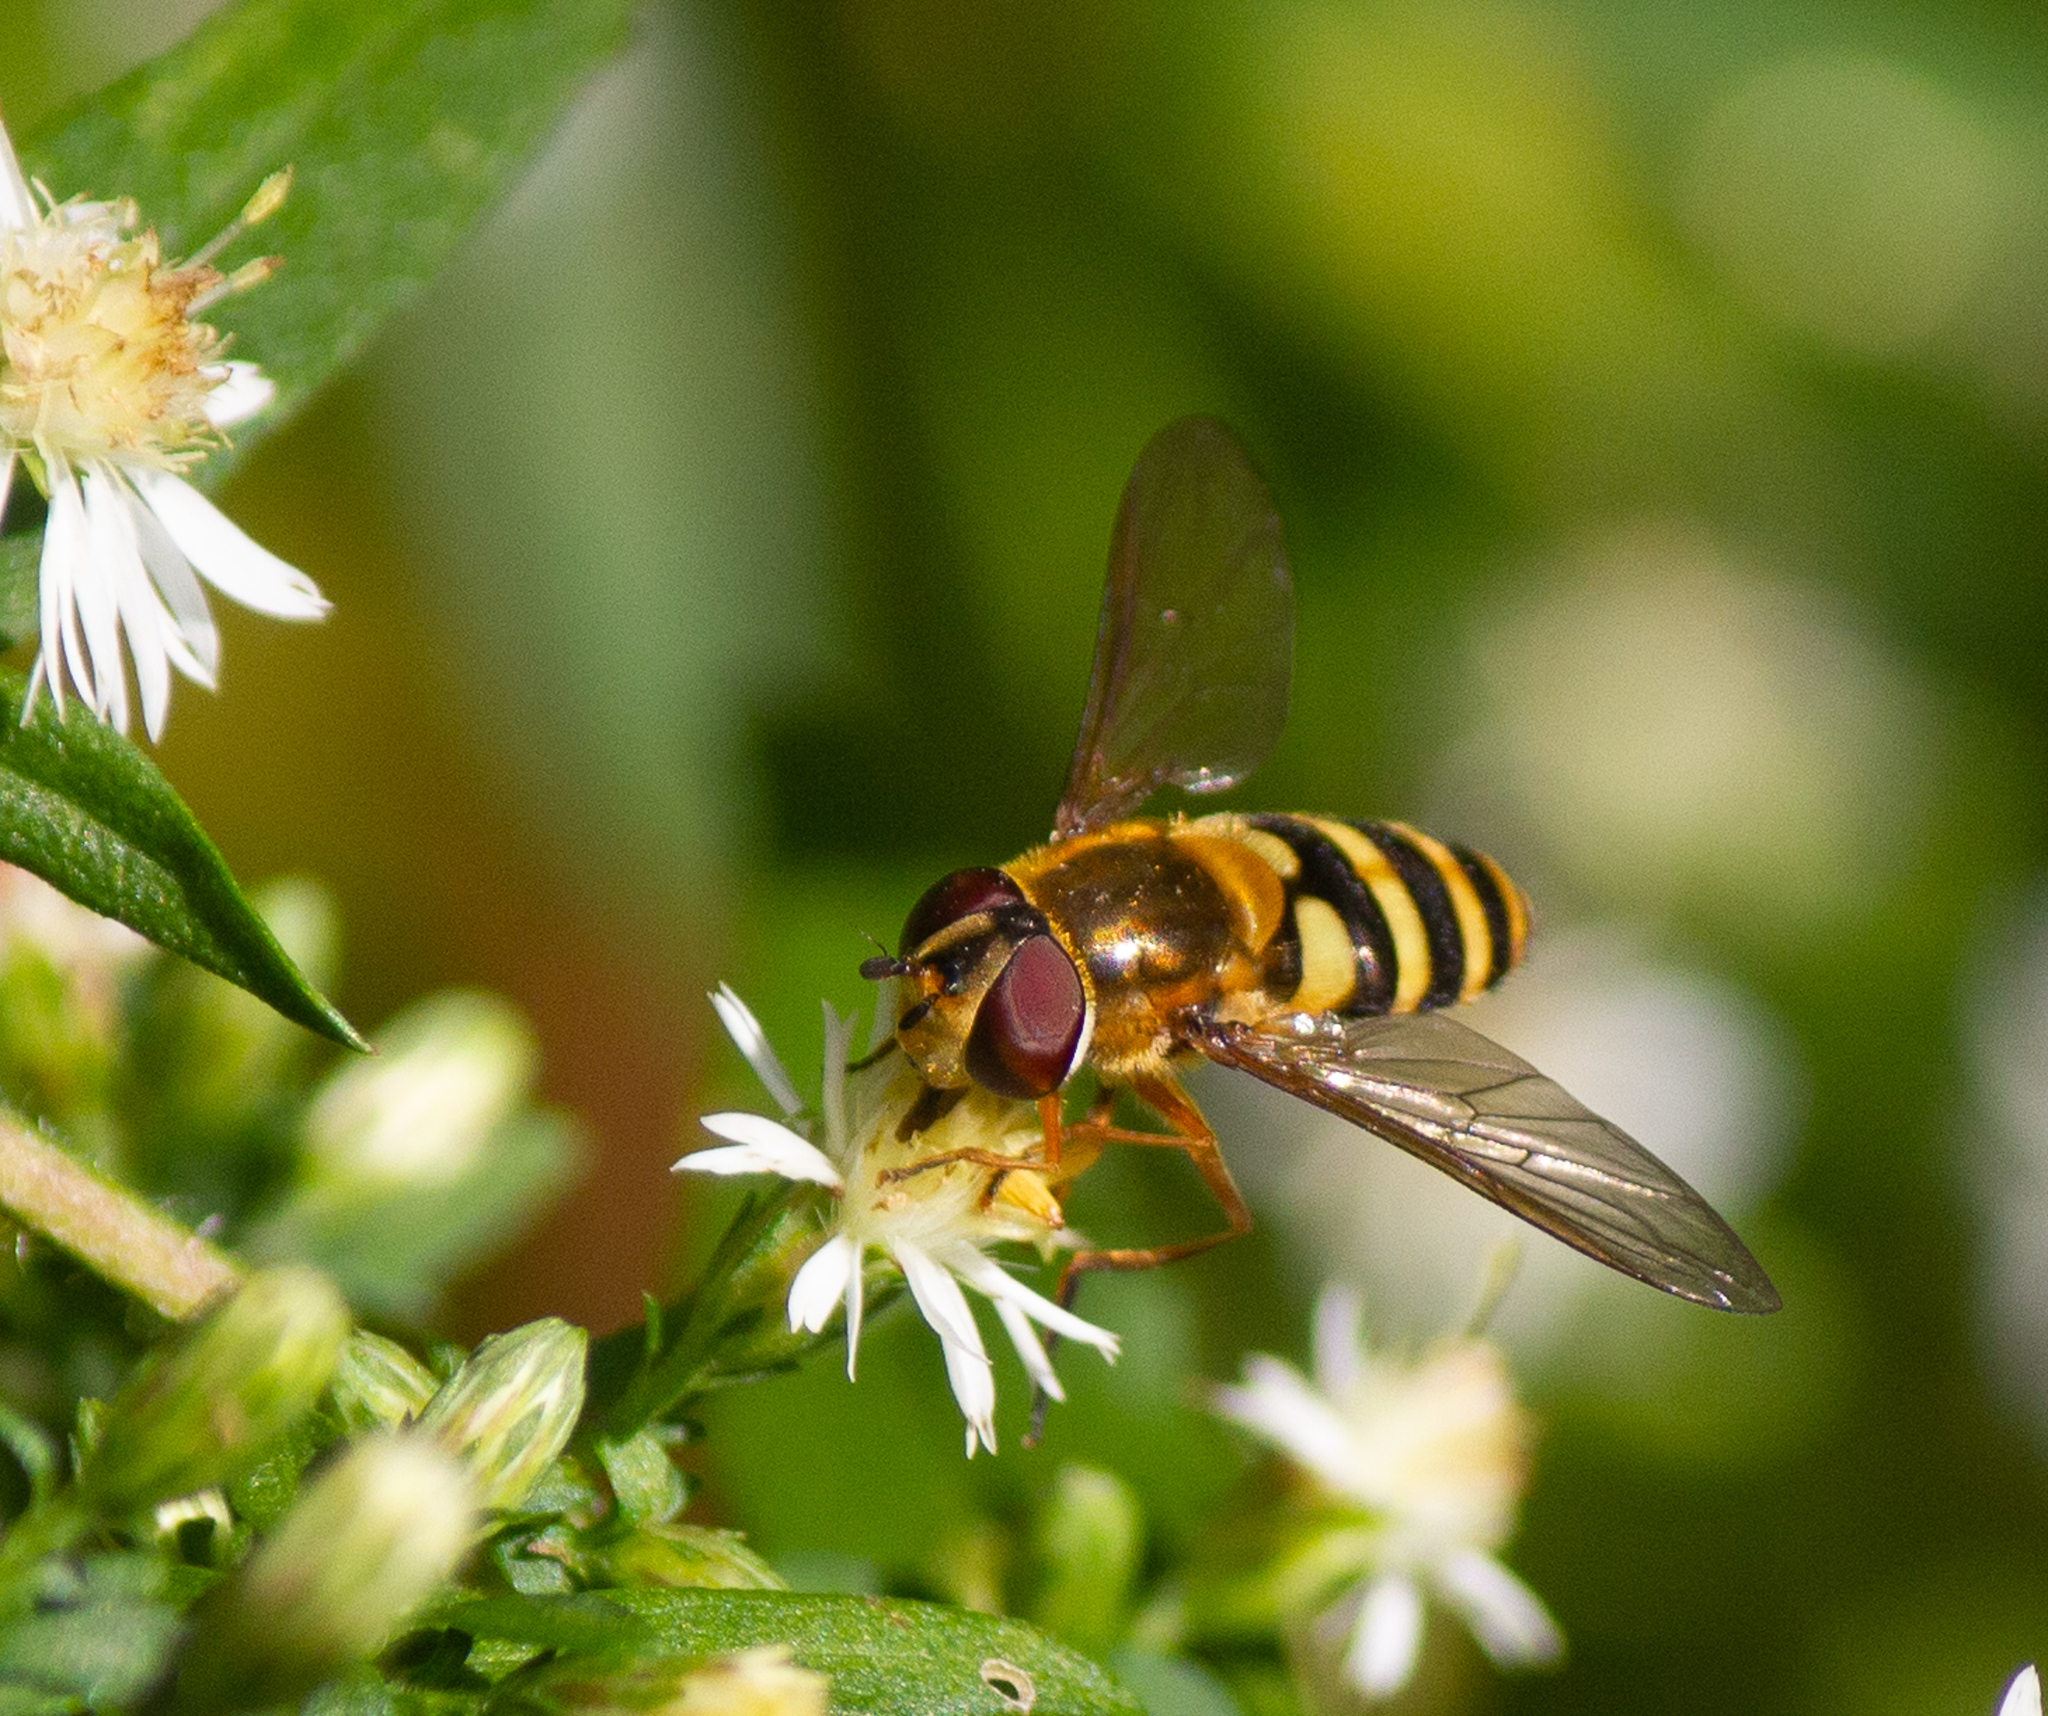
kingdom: Animalia
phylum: Arthropoda
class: Insecta
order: Diptera
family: Syrphidae
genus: Syrphus
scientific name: Syrphus ribesii
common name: Common flower fly
